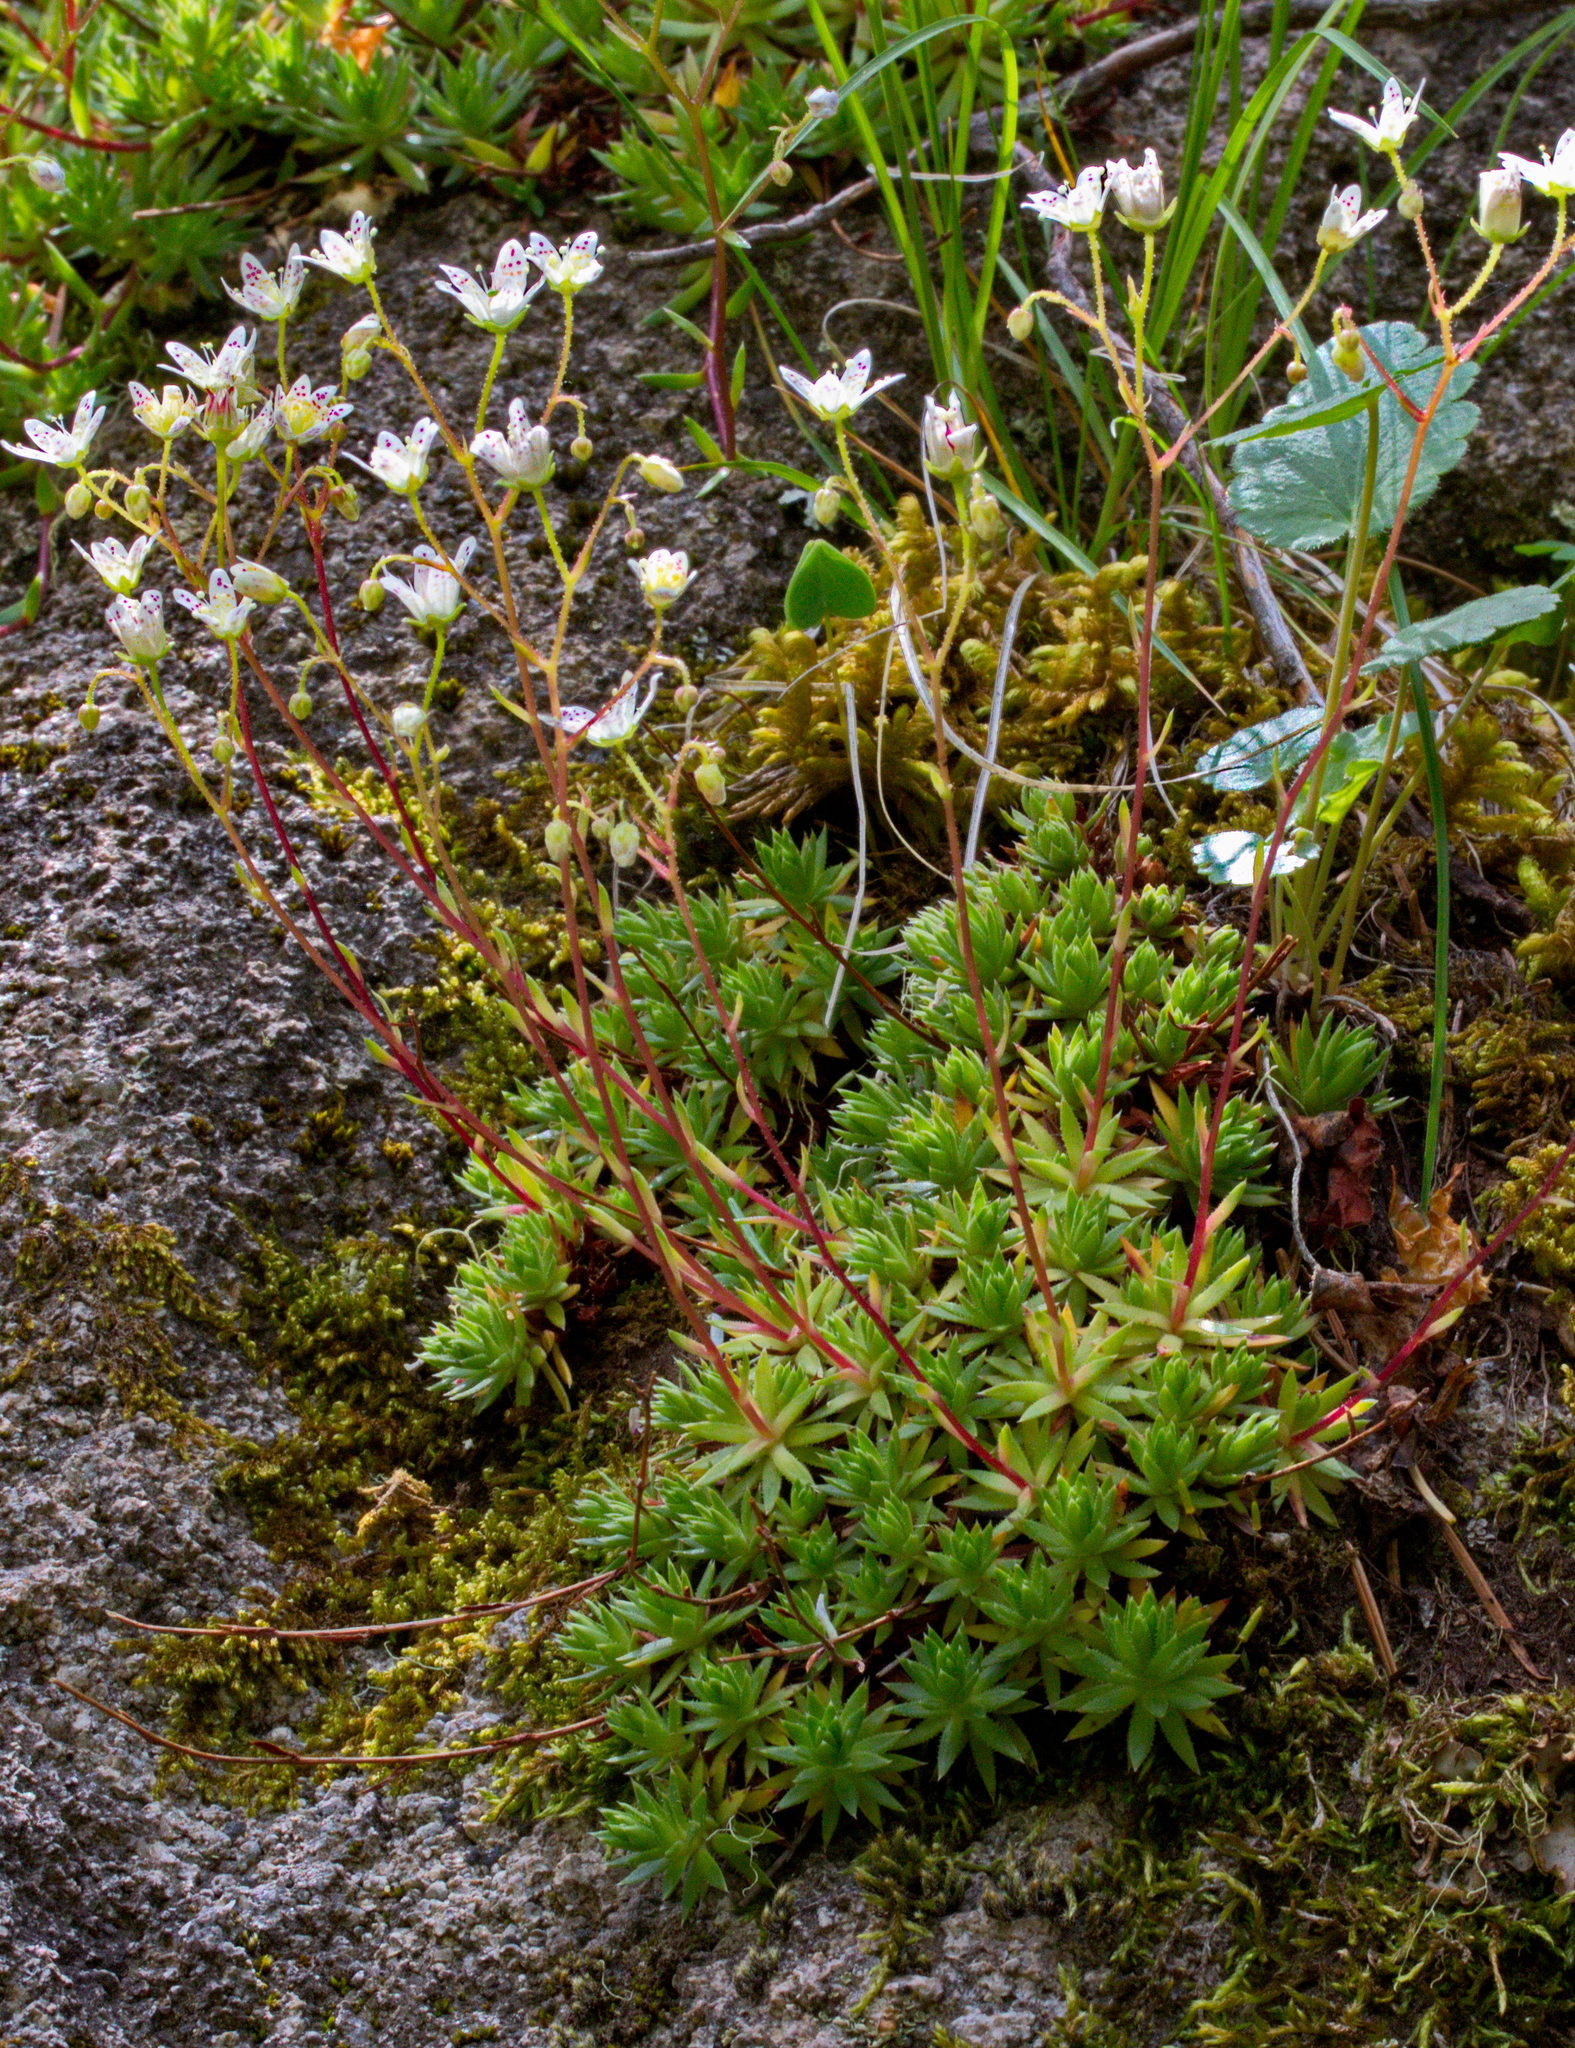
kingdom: Plantae
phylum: Tracheophyta
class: Magnoliopsida
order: Saxifragales
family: Saxifragaceae
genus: Saxifraga
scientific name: Saxifraga bronchialis
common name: Matted saxifrage
